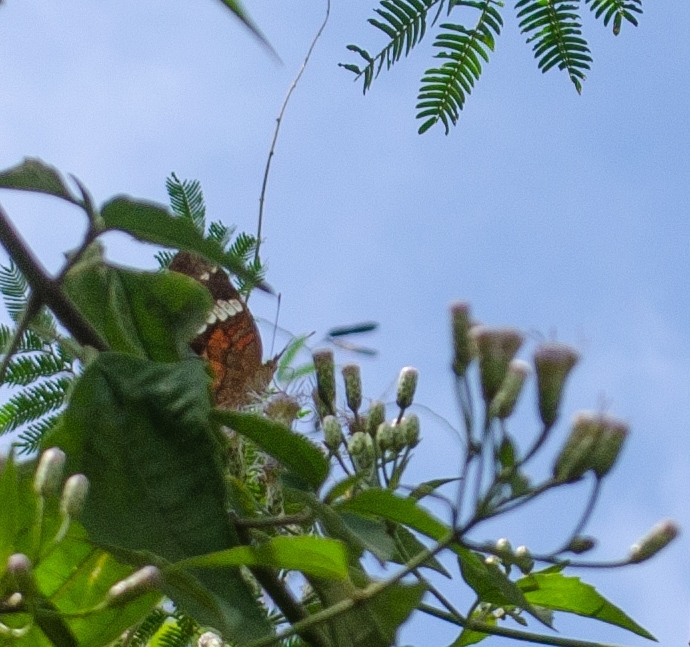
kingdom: Animalia
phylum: Arthropoda
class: Insecta
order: Lepidoptera
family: Nymphalidae
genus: Anartia
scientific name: Anartia amathea
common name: Red peacock
